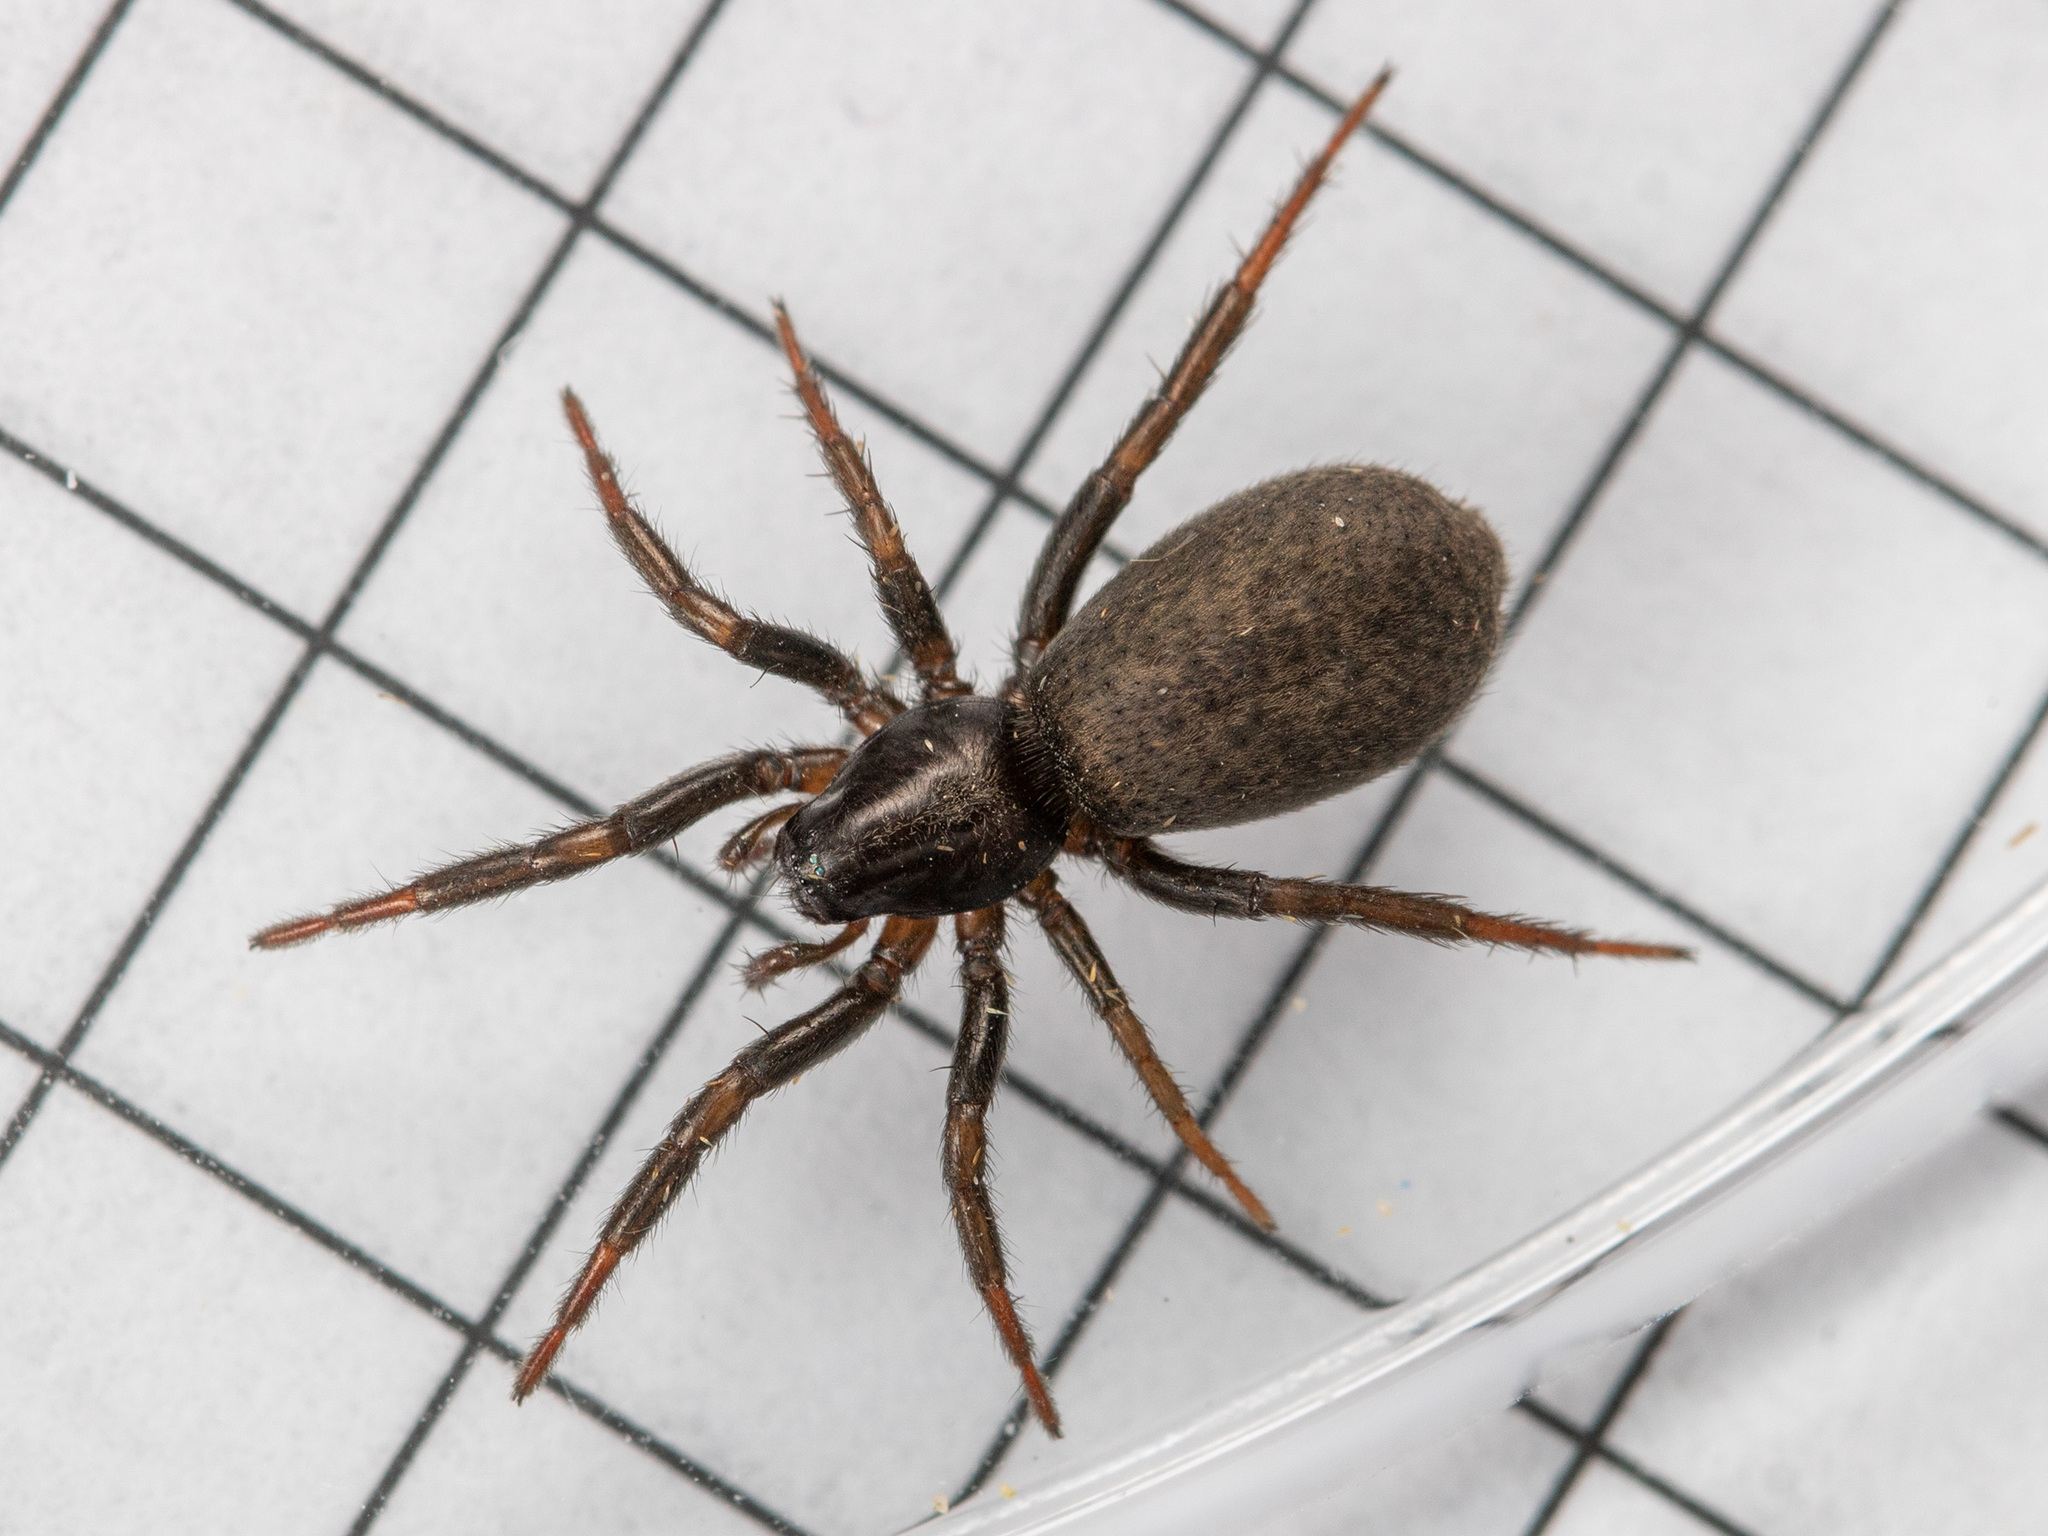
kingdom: Animalia
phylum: Arthropoda
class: Arachnida
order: Araneae
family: Gnaphosidae
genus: Gnaphosa
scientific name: Gnaphosa licenti
